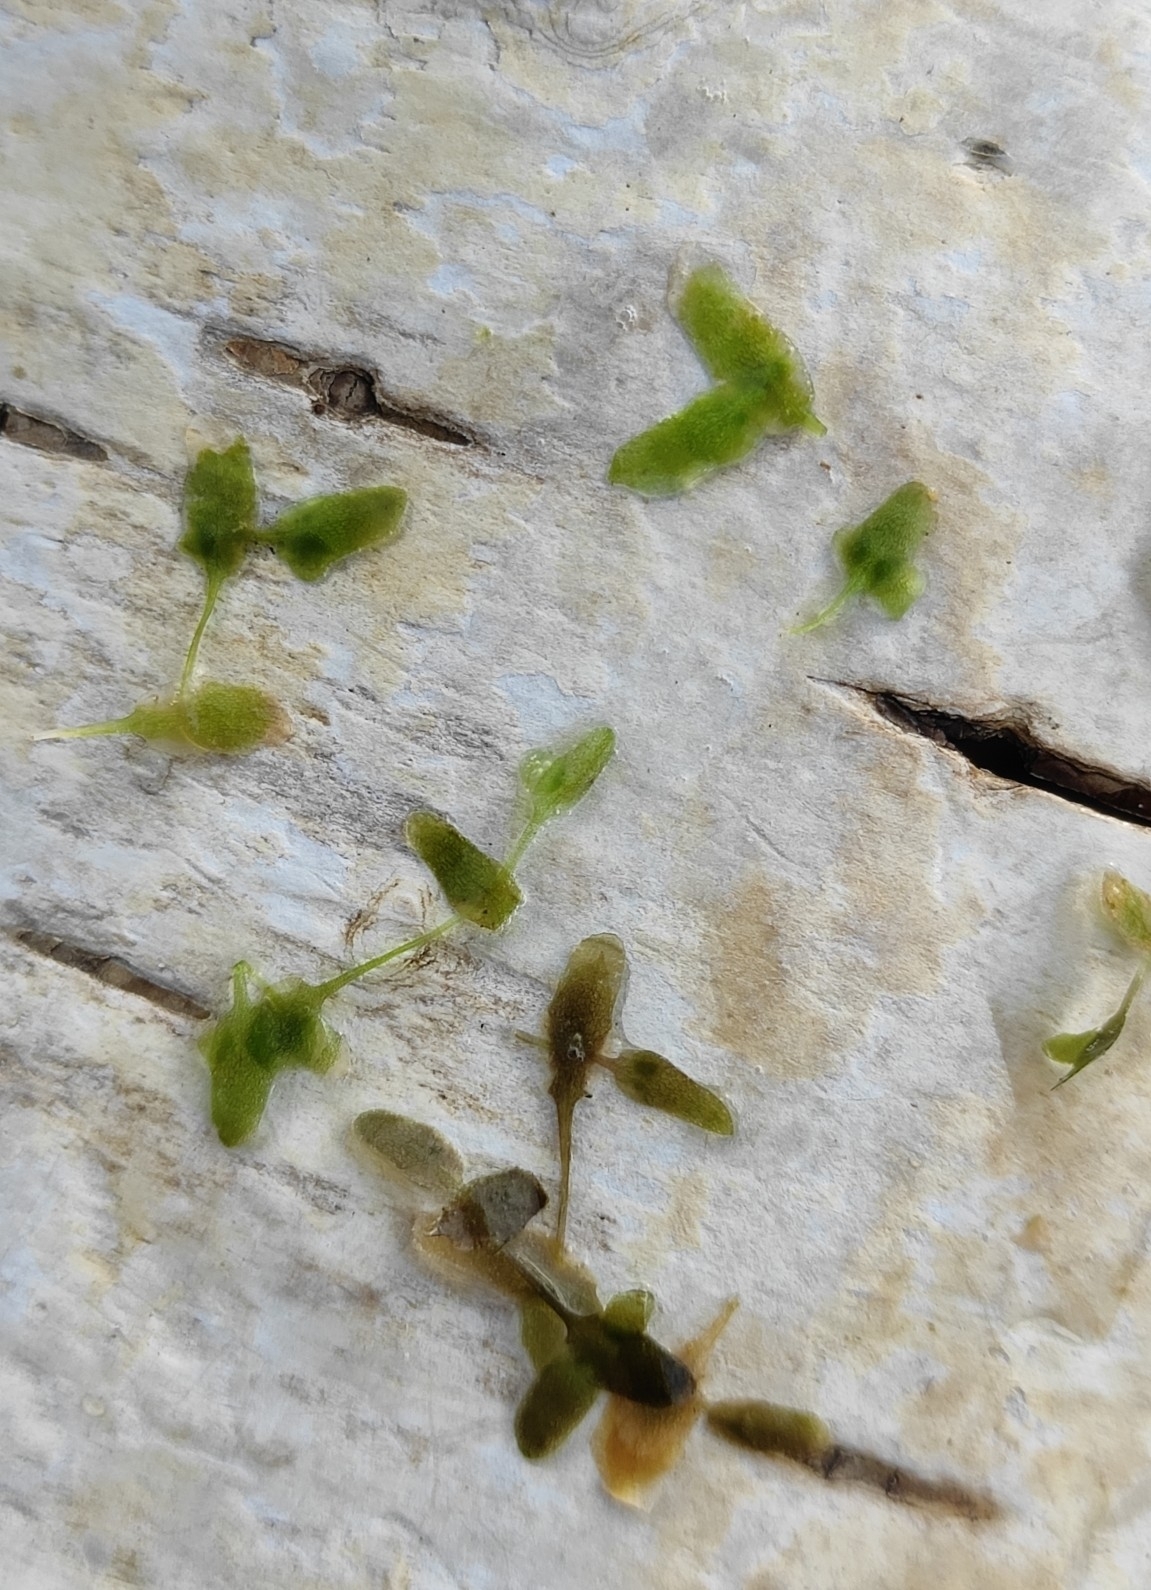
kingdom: Plantae
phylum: Tracheophyta
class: Liliopsida
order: Alismatales
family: Araceae
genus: Lemna
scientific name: Lemna trisulca
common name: Ivy-leaved duckweed
